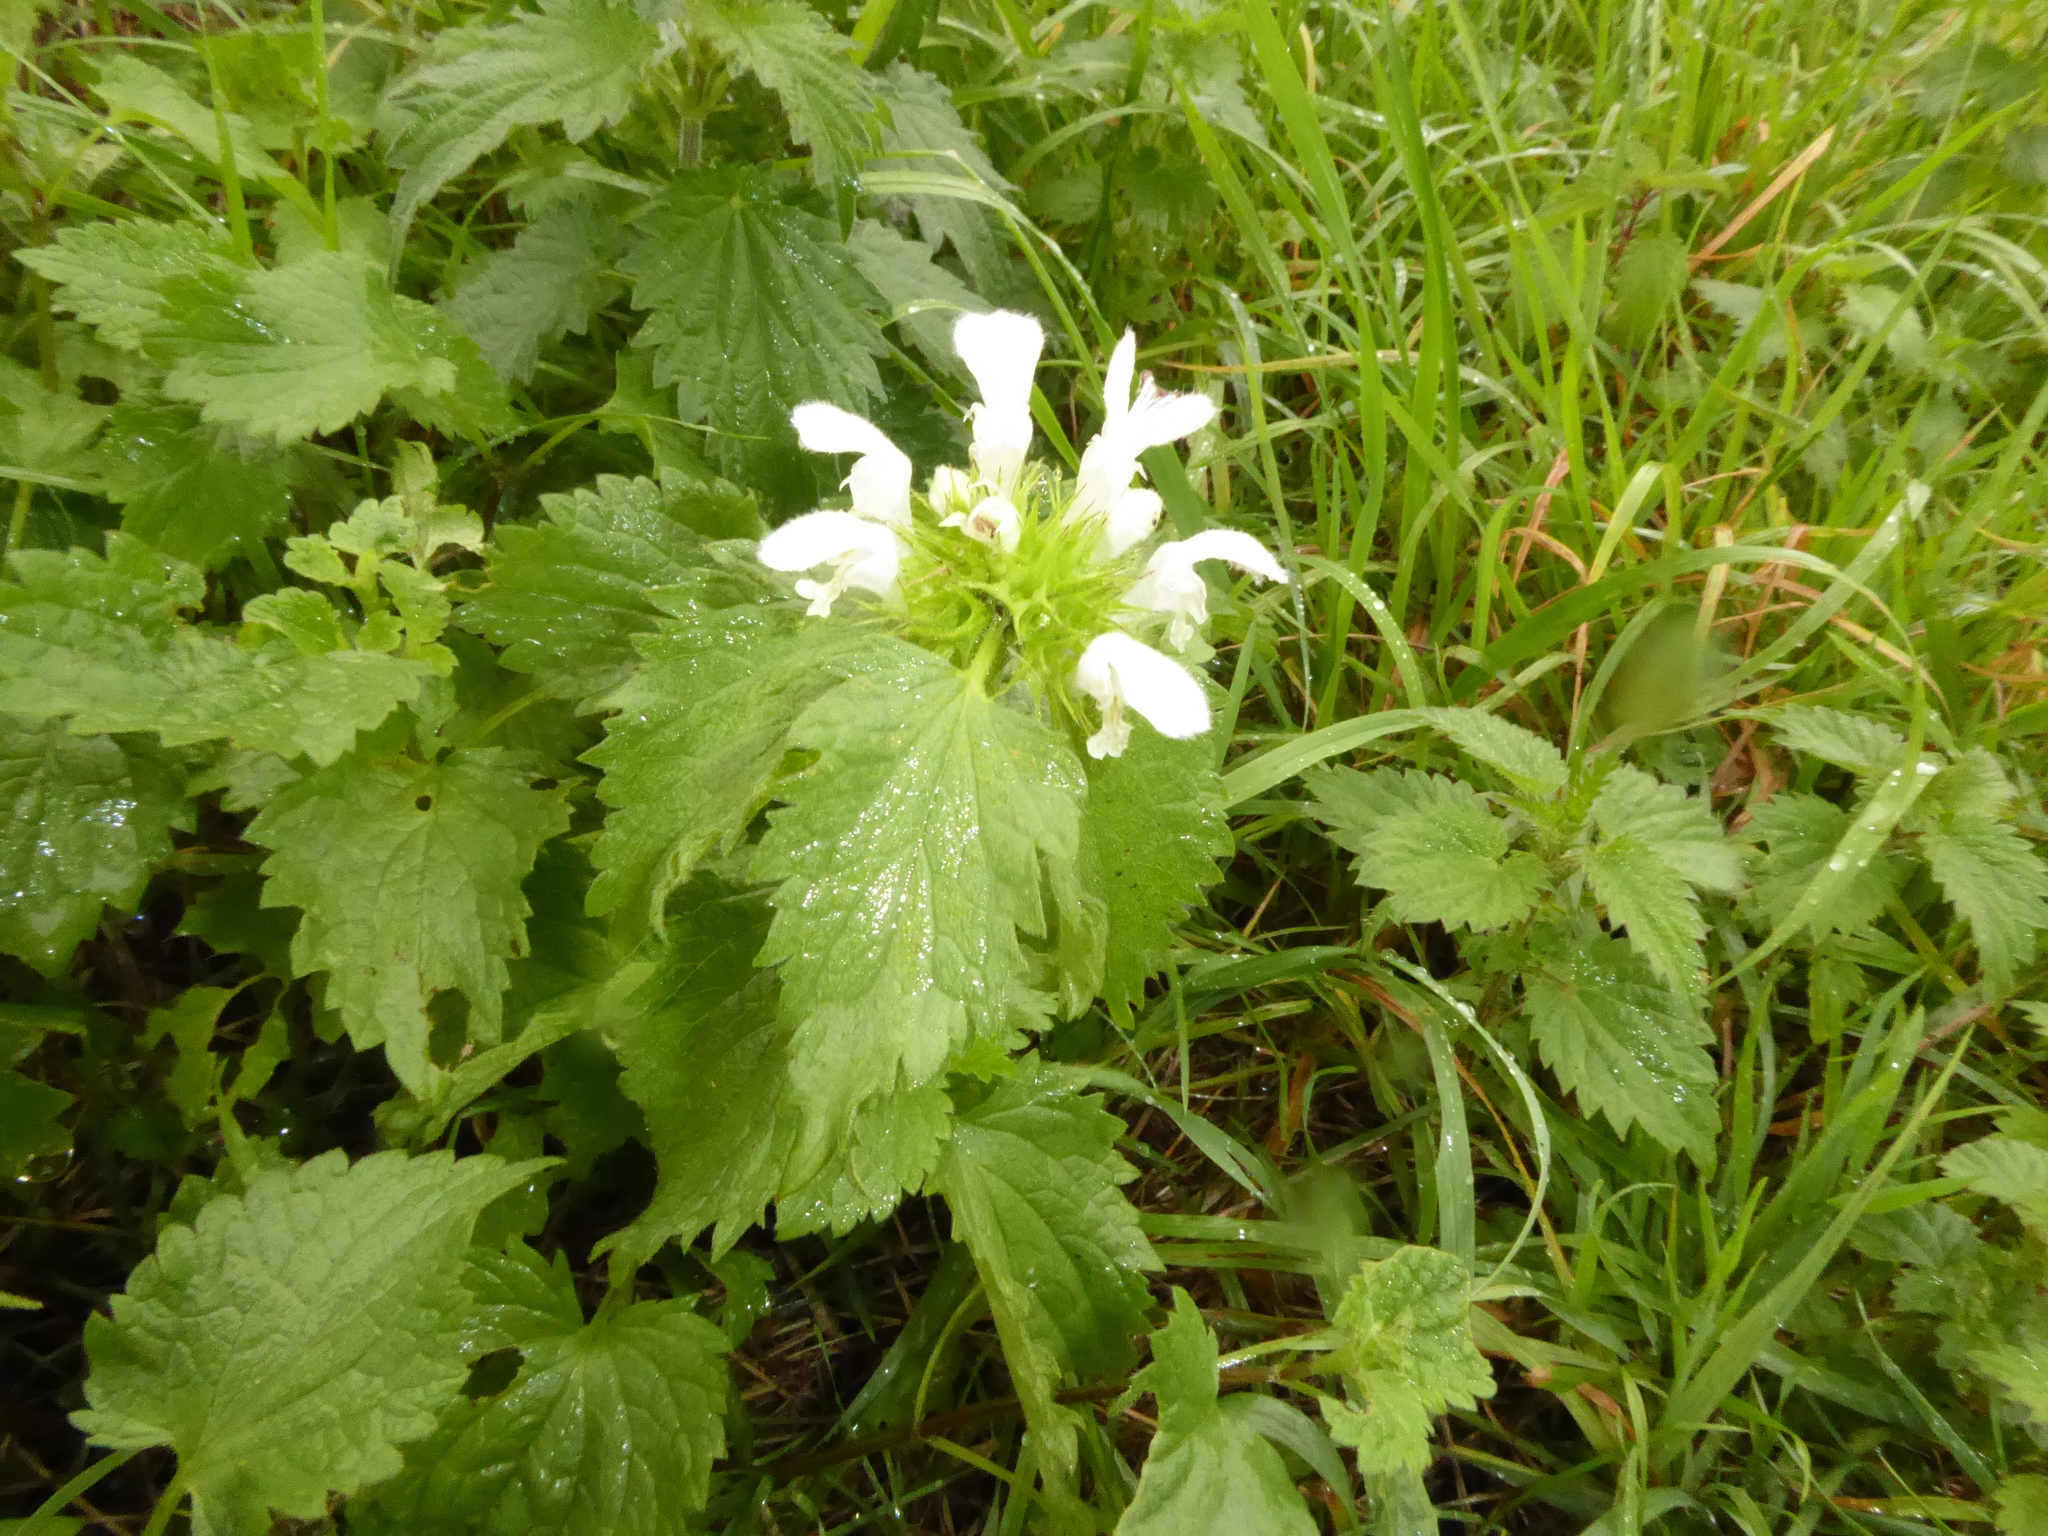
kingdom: Plantae
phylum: Tracheophyta
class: Magnoliopsida
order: Lamiales
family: Lamiaceae
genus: Lamium
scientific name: Lamium album
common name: White dead-nettle
